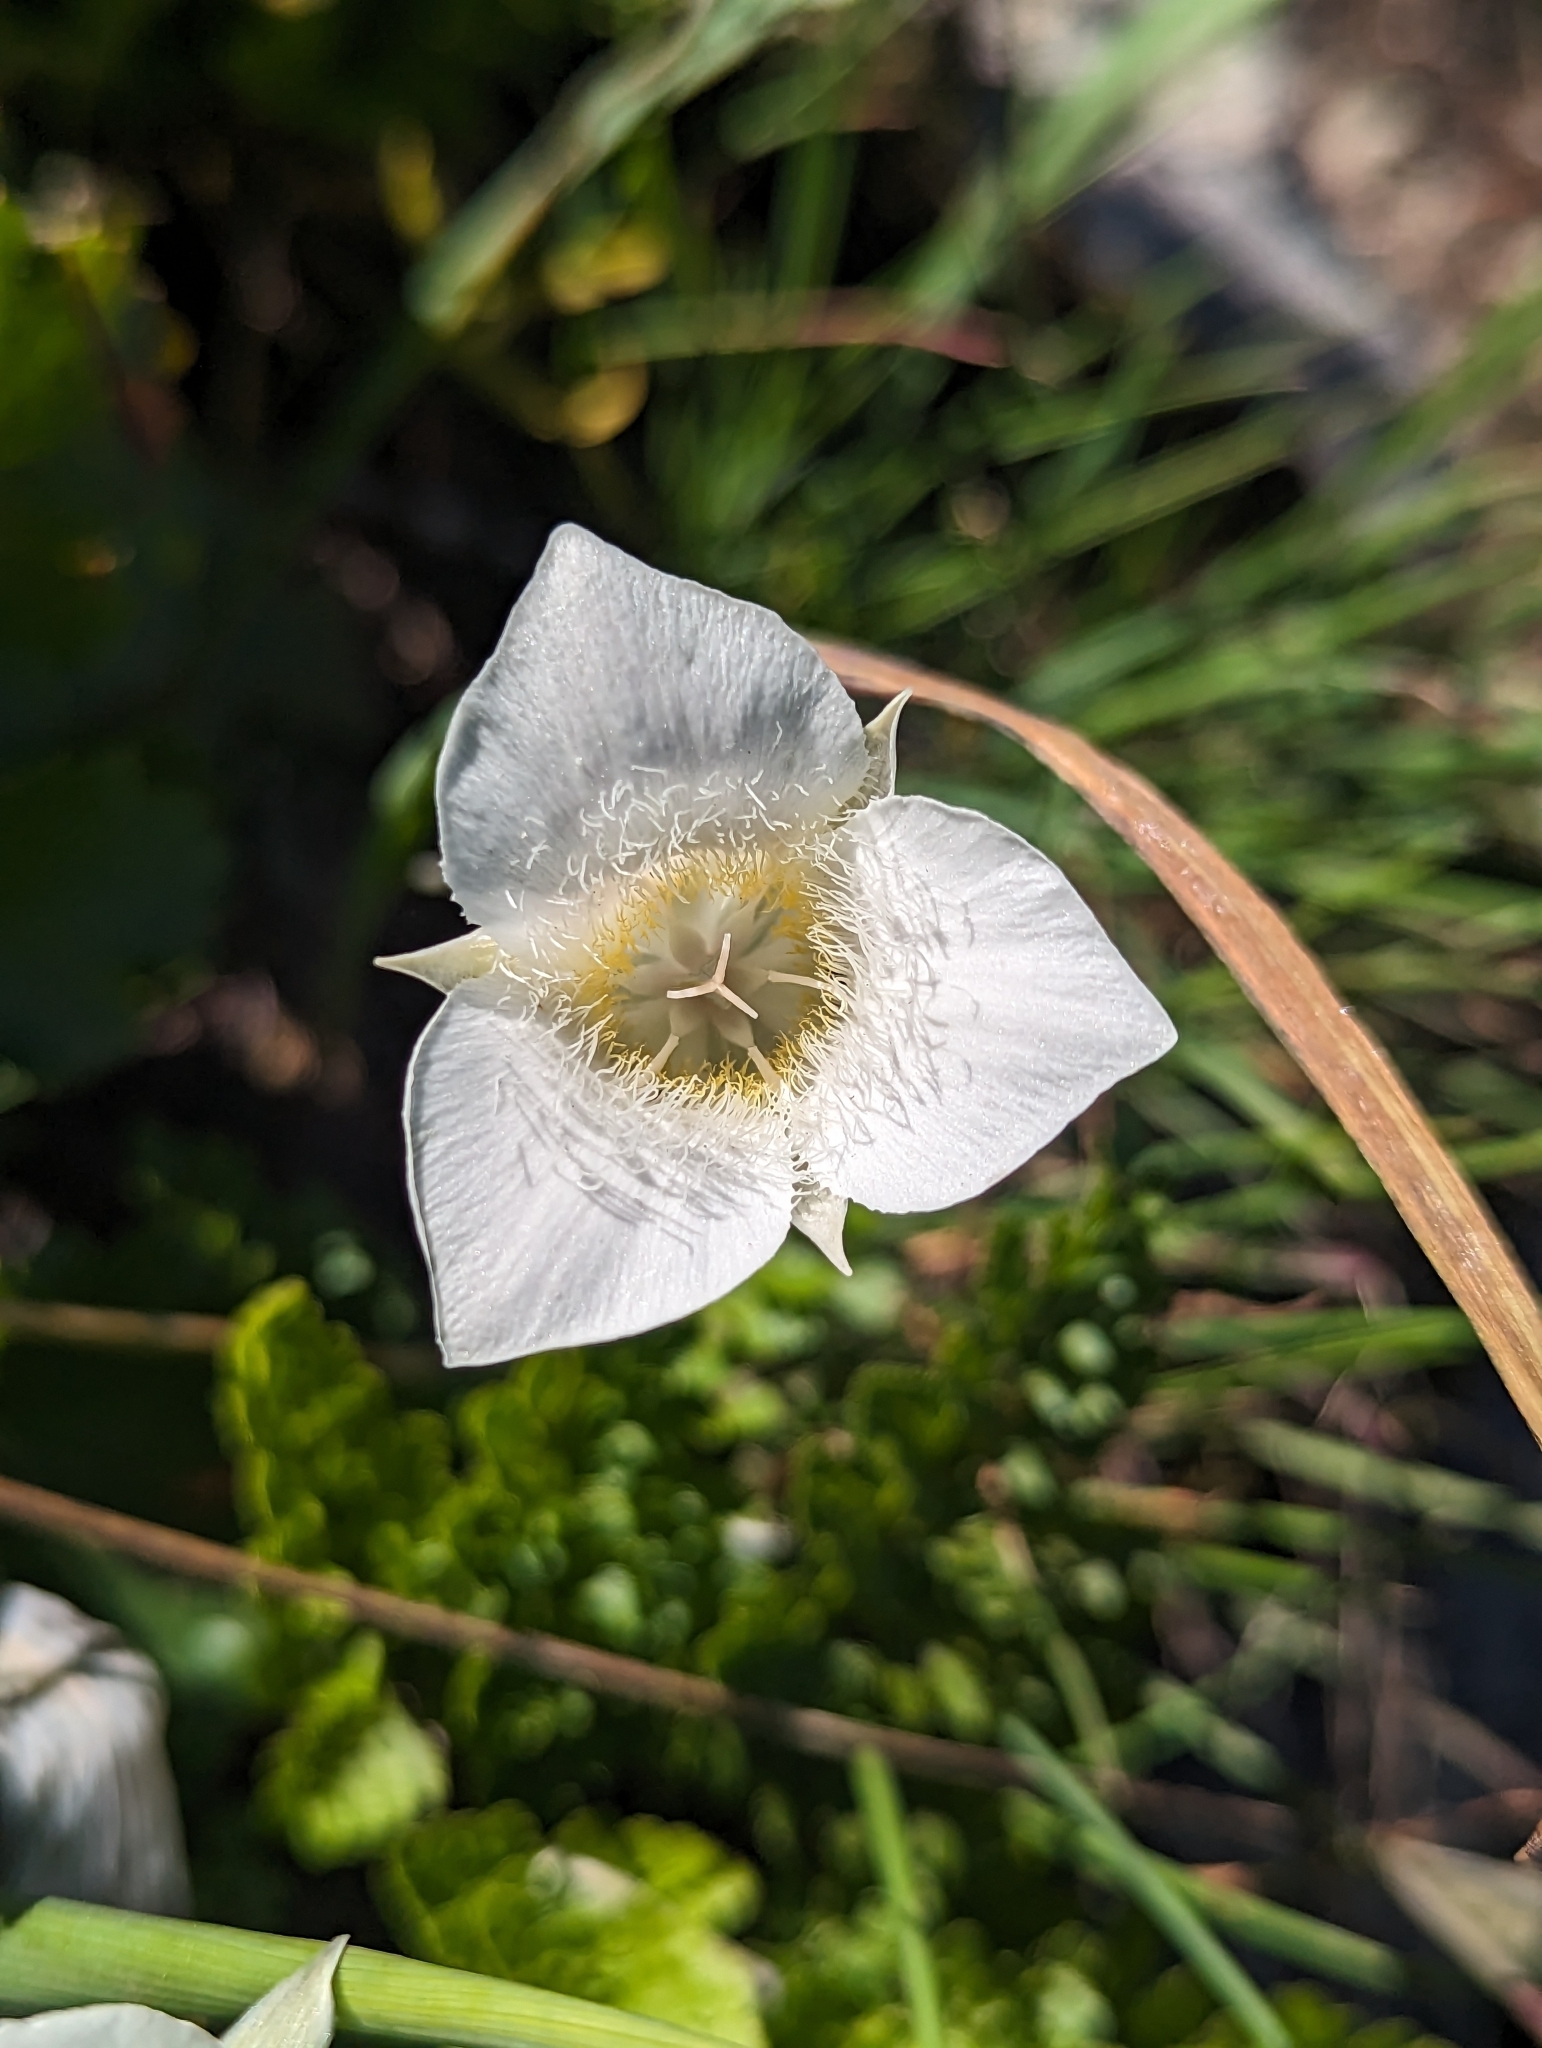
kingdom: Plantae
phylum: Tracheophyta
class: Liliopsida
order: Liliales
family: Liliaceae
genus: Calochortus
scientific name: Calochortus apiculatus
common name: Baker's mariposa lily
